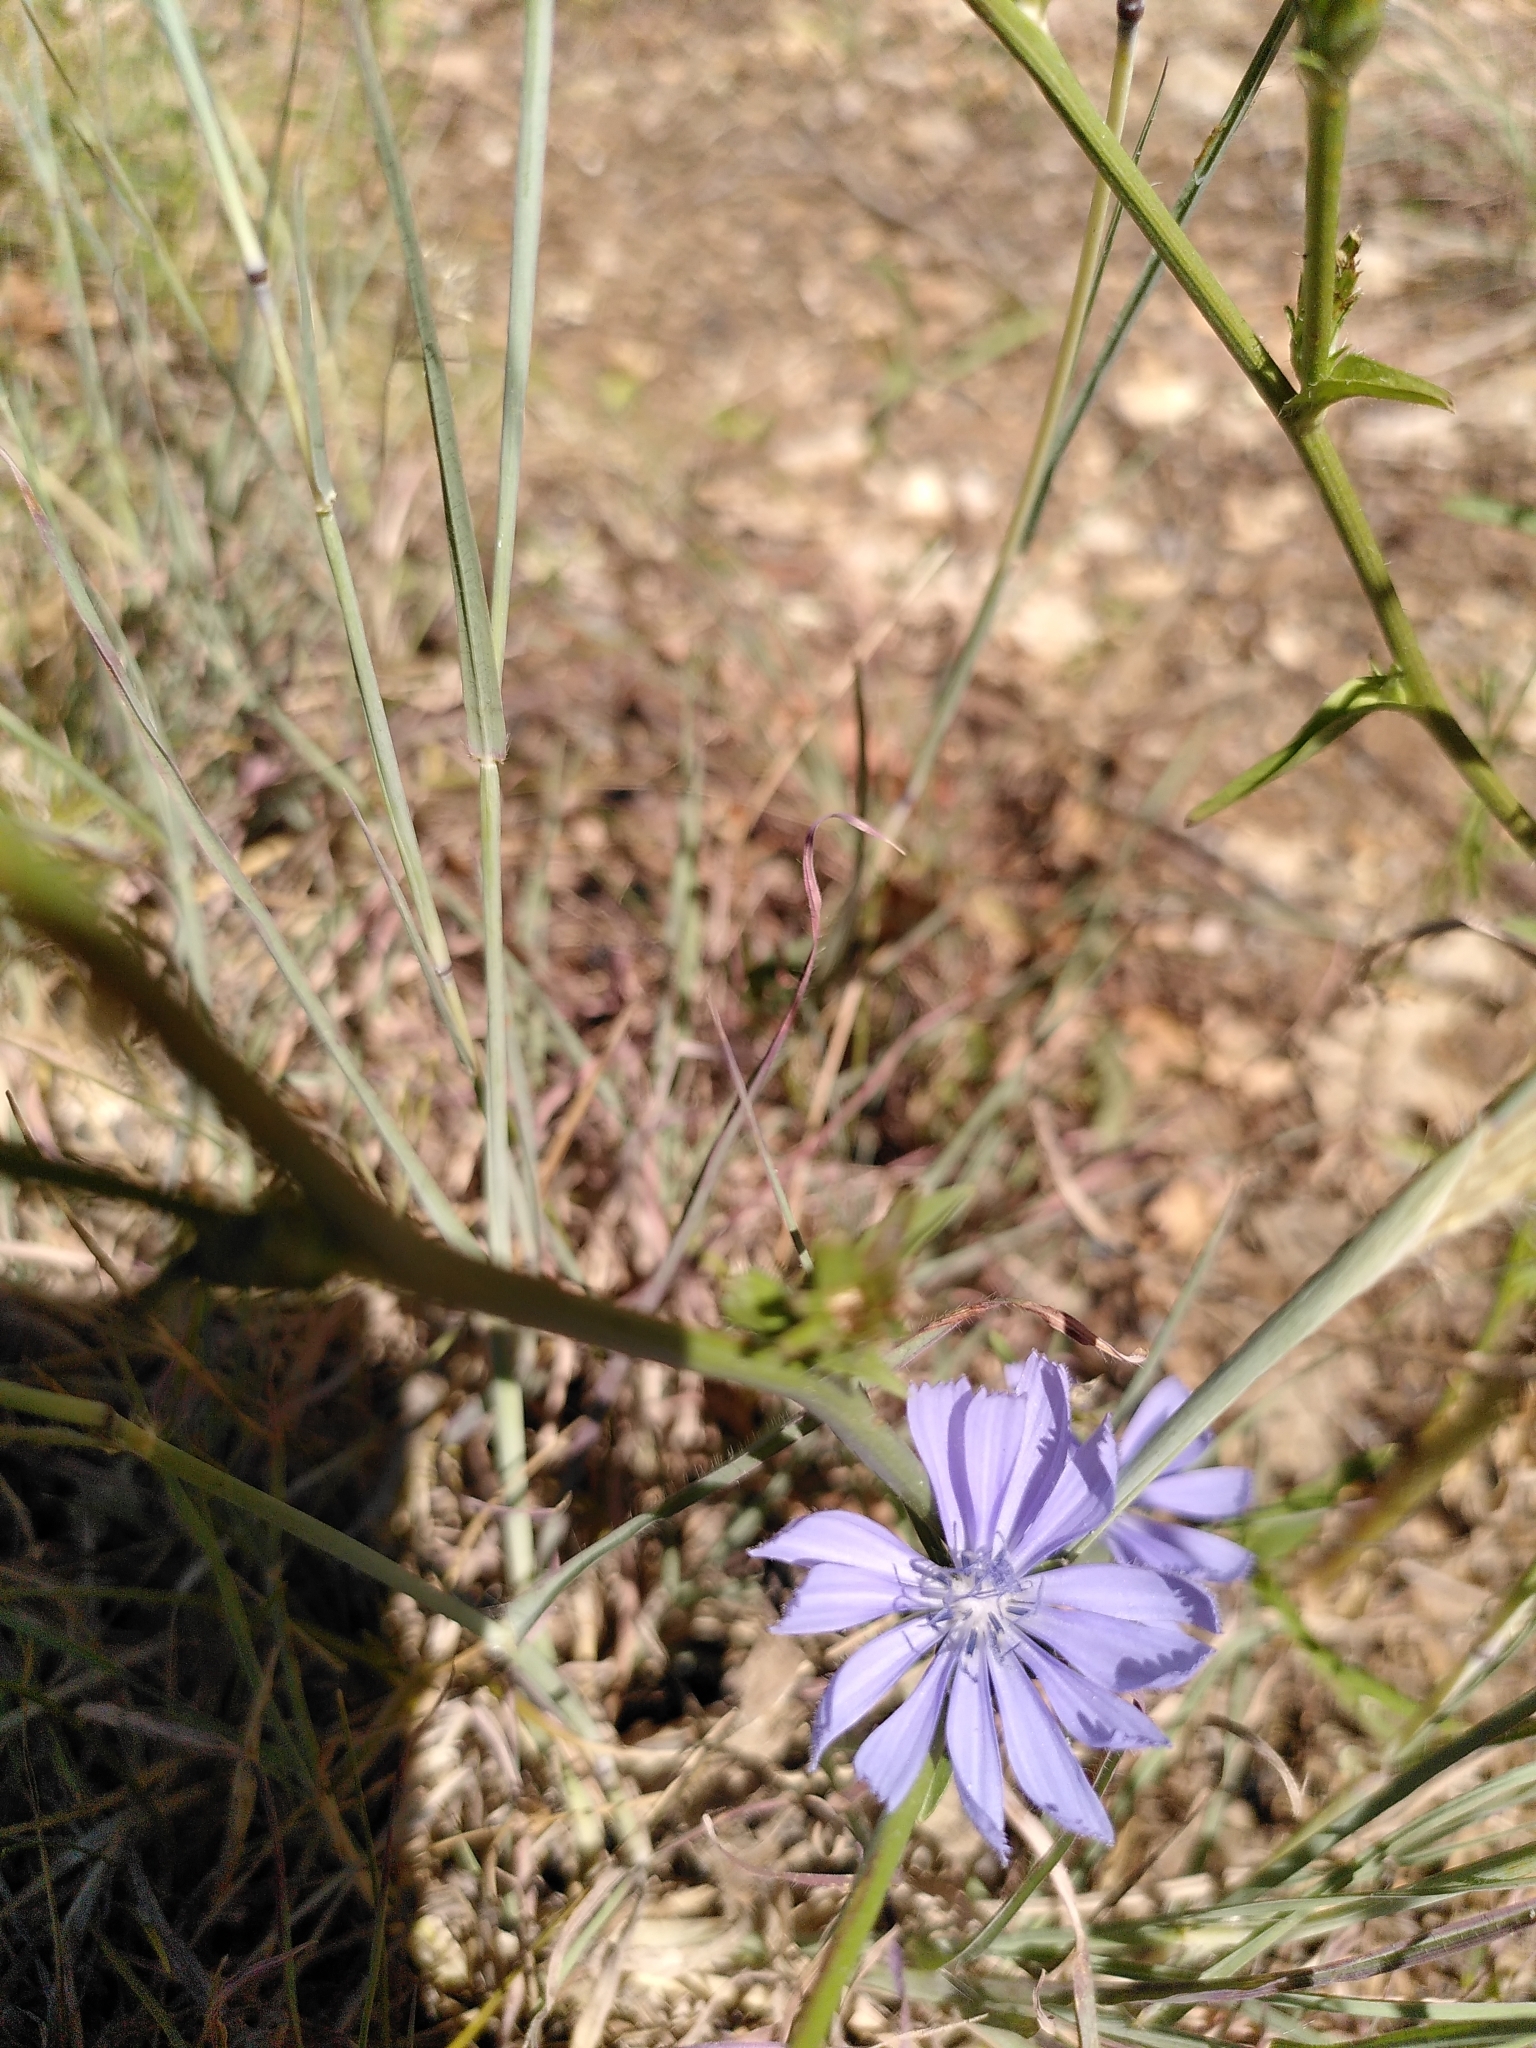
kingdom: Plantae
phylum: Tracheophyta
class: Magnoliopsida
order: Asterales
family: Asteraceae
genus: Cichorium
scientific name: Cichorium intybus
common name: Chicory
